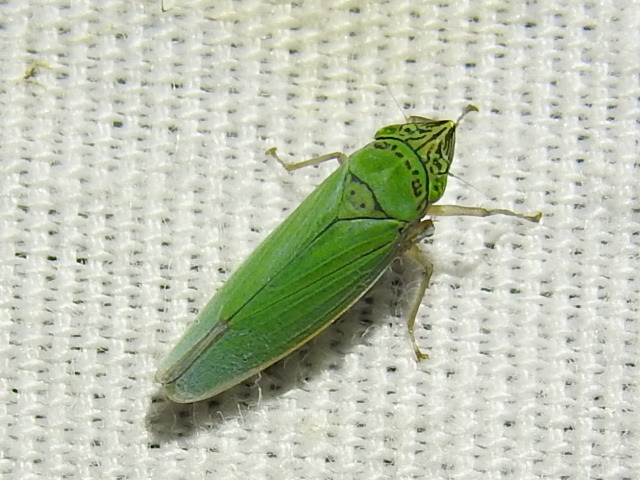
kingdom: Animalia
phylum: Arthropoda
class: Insecta
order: Hemiptera
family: Cicadellidae
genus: Draeculacephala
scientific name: Draeculacephala inscripta
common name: Leafhopper
